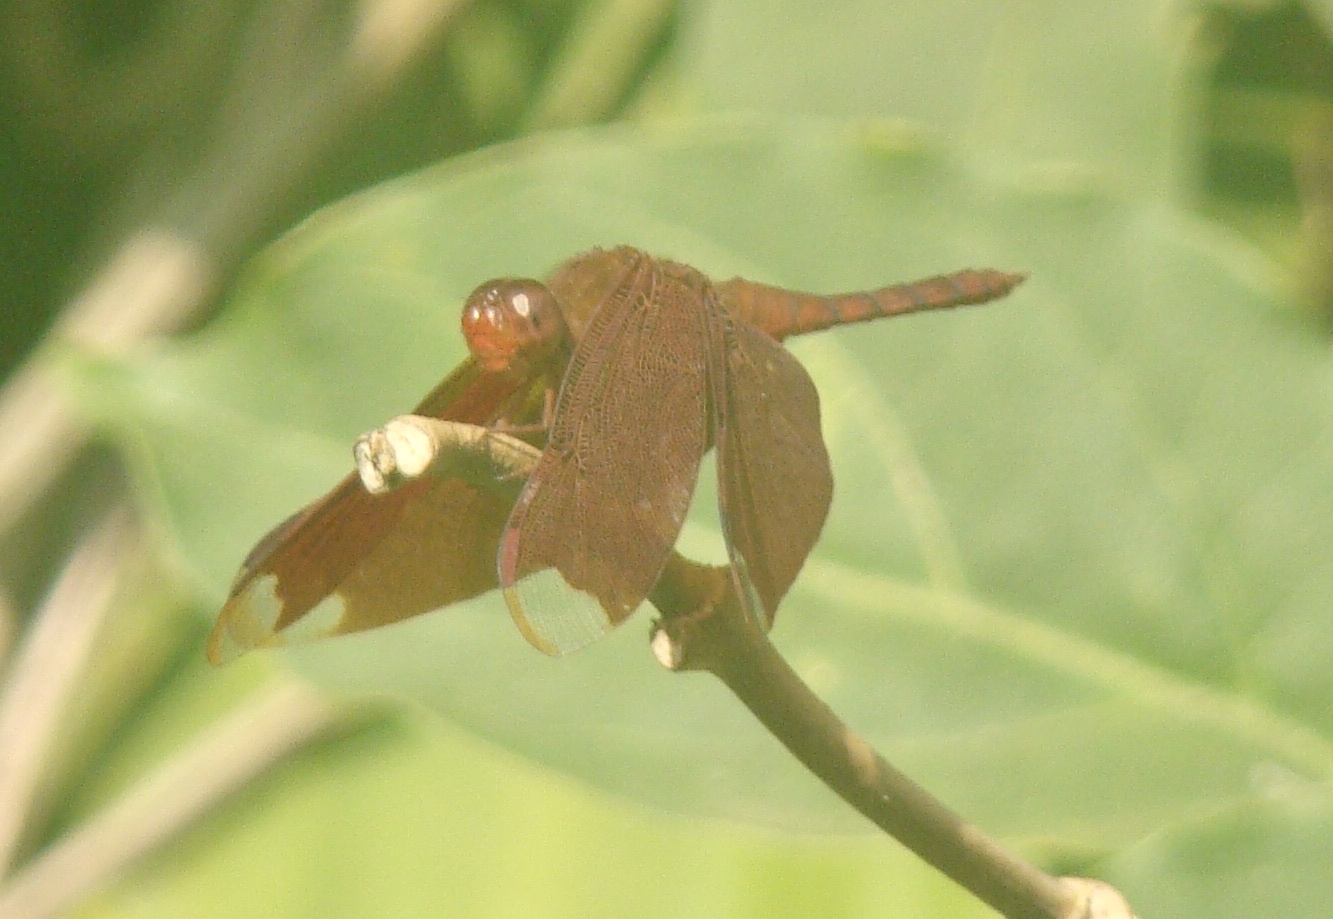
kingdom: Animalia
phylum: Arthropoda
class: Insecta
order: Odonata
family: Libellulidae
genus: Neurothemis
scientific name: Neurothemis fulvia
